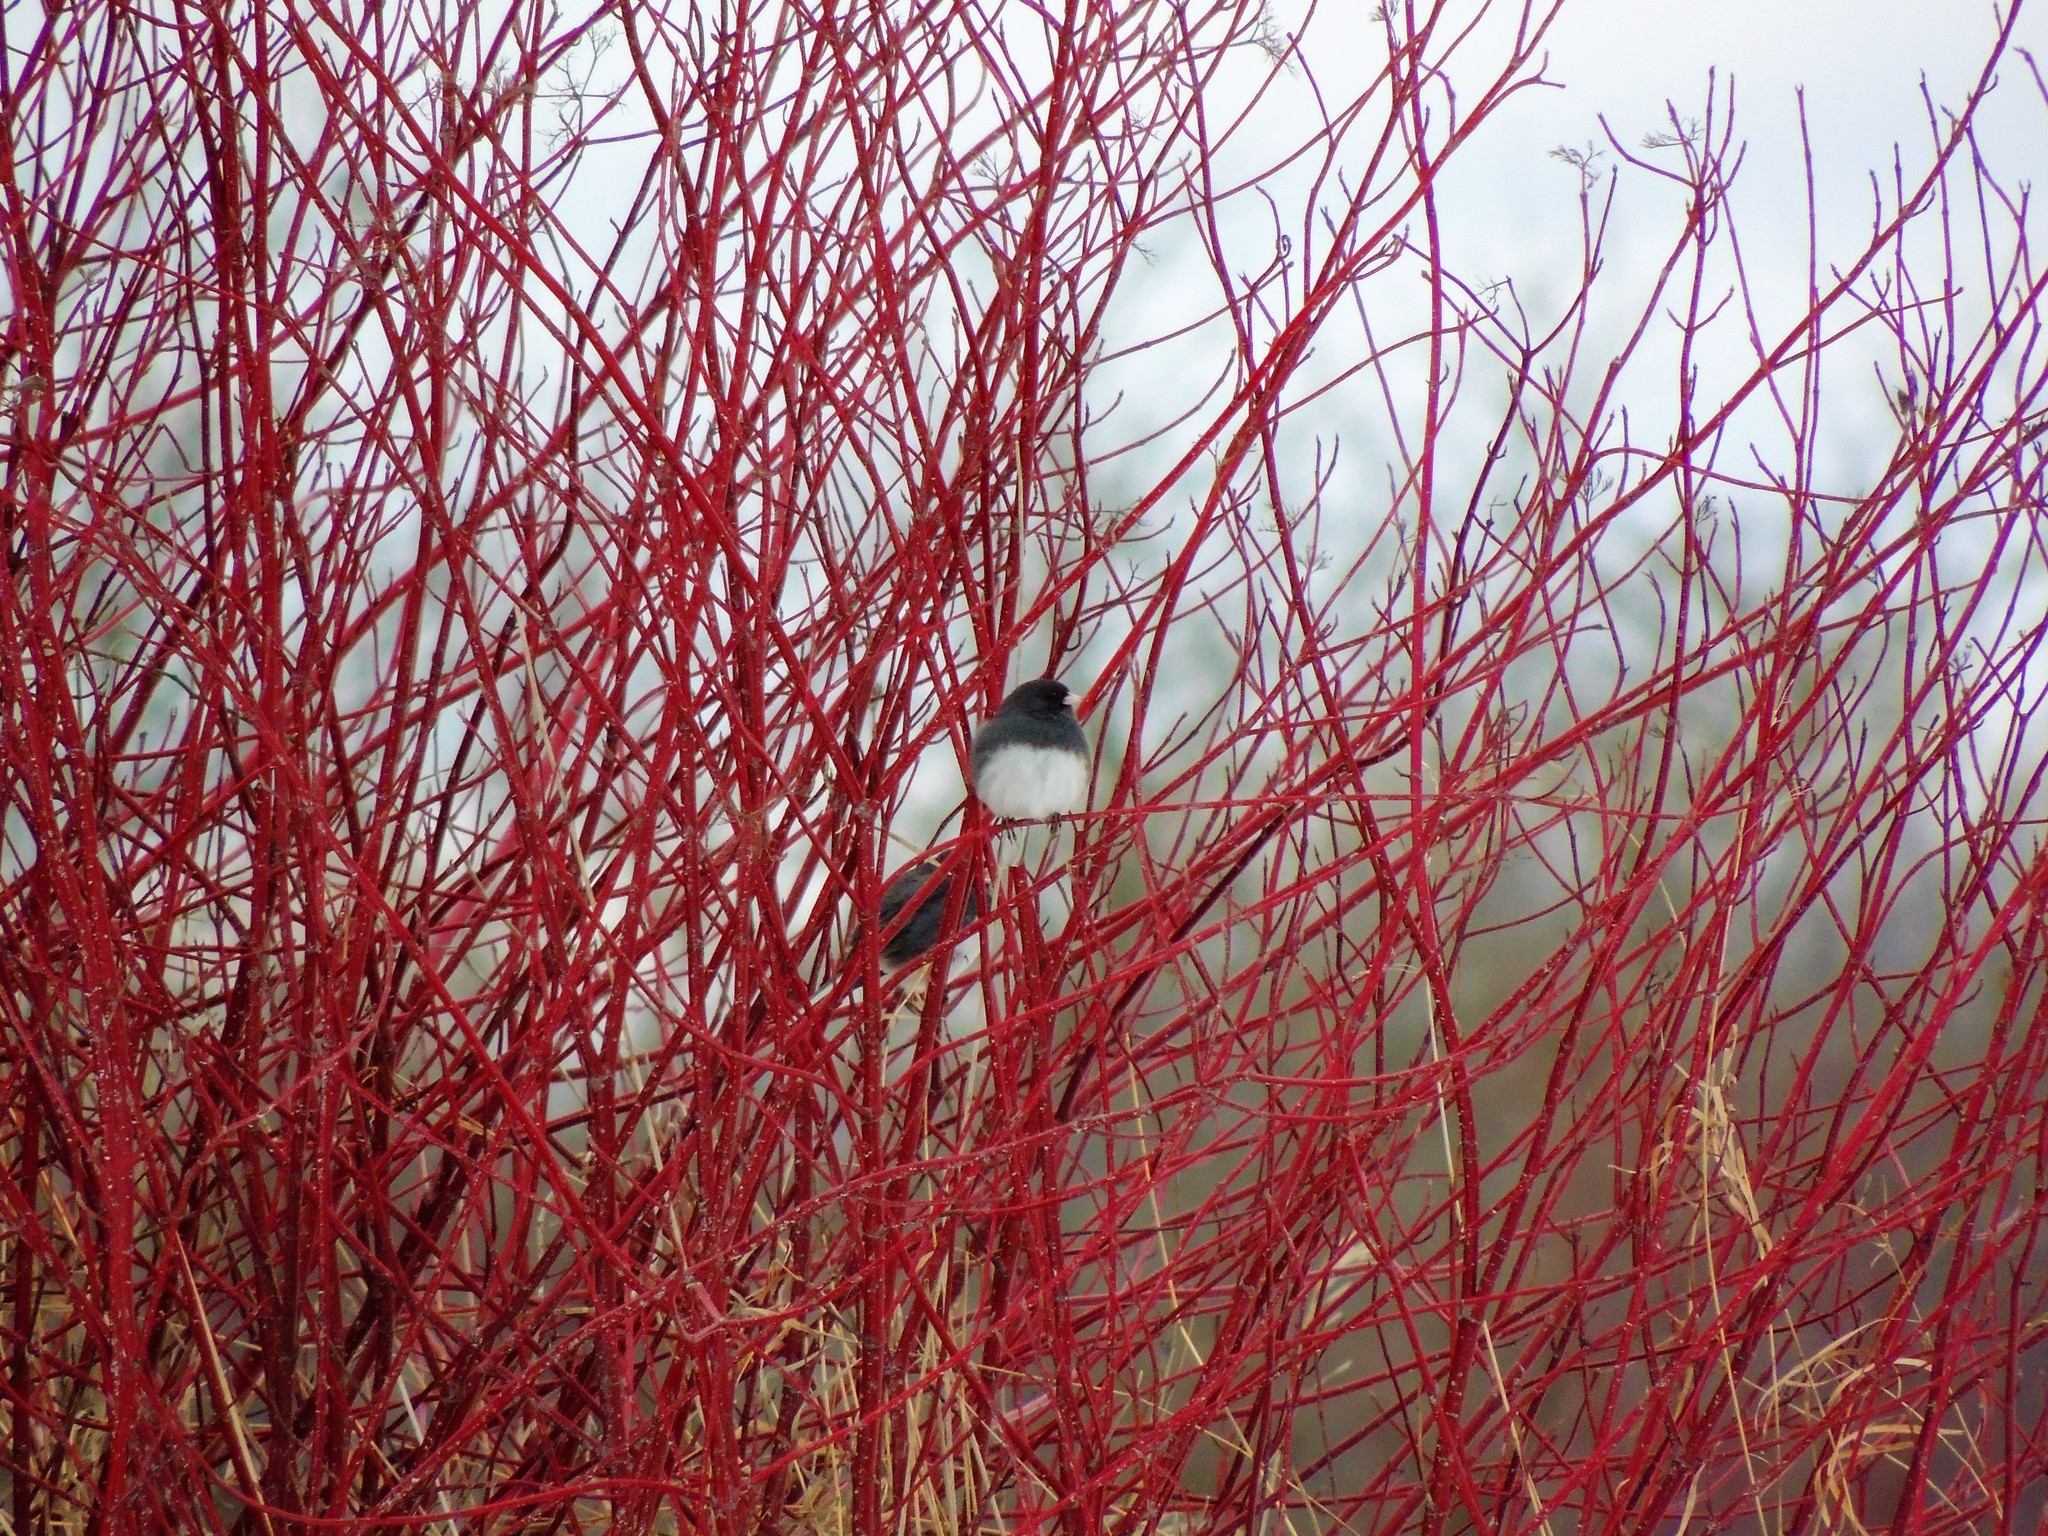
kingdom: Animalia
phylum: Chordata
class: Aves
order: Passeriformes
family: Passerellidae
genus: Junco
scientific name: Junco hyemalis
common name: Dark-eyed junco
